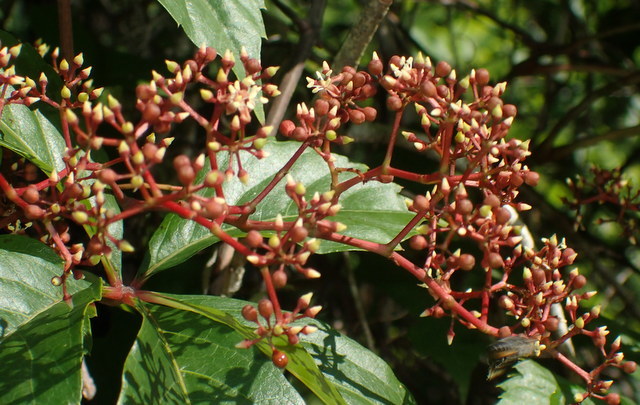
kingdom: Plantae
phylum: Tracheophyta
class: Magnoliopsida
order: Vitales
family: Vitaceae
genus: Parthenocissus
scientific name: Parthenocissus quinquefolia
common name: Virginia-creeper
